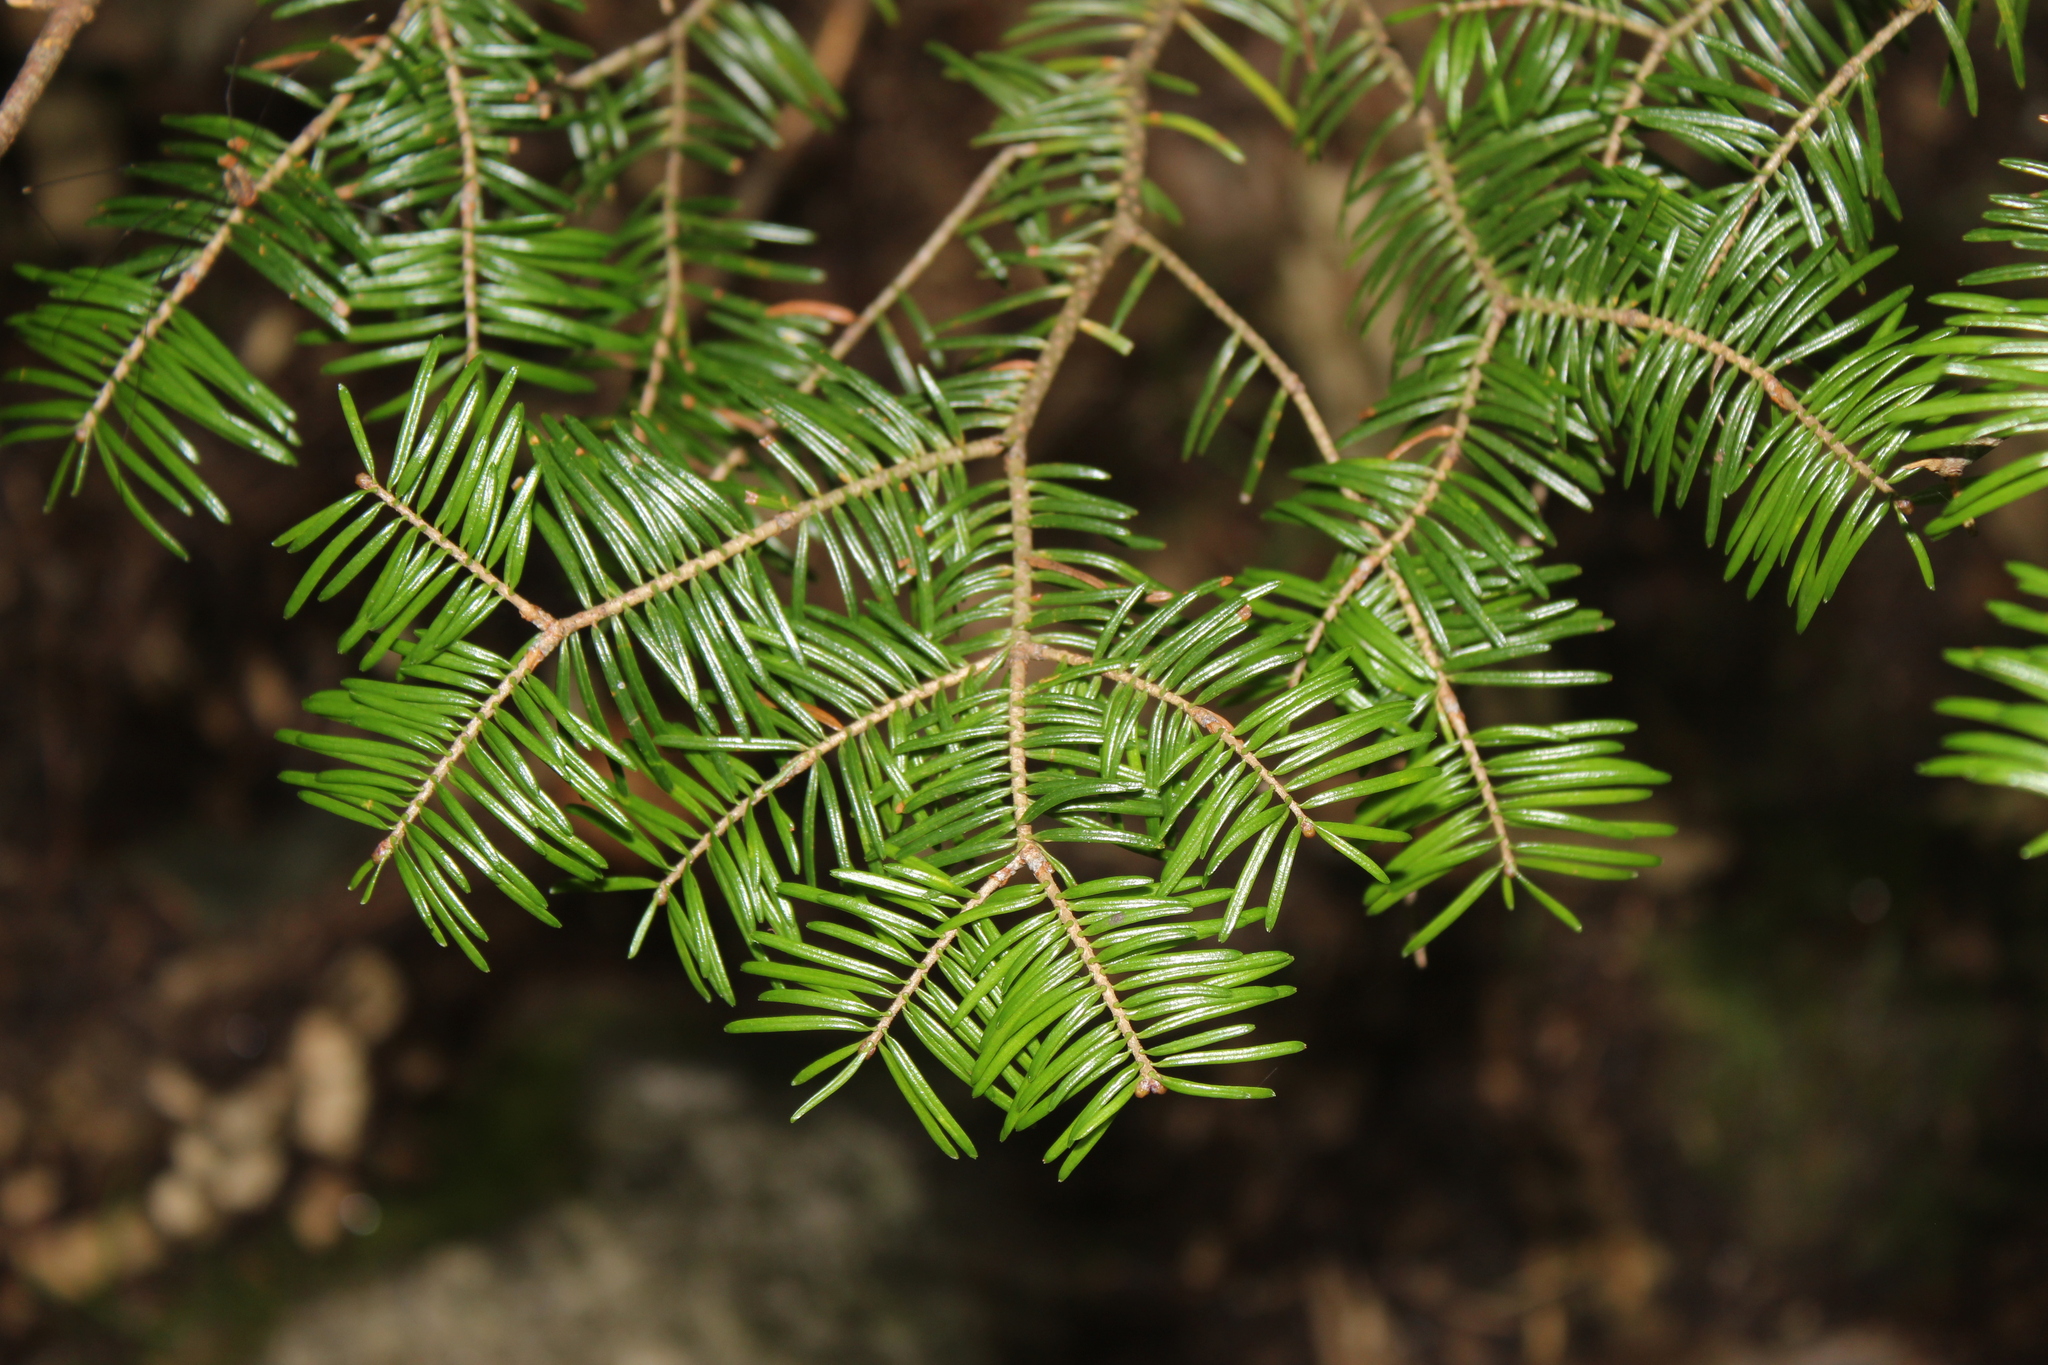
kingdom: Plantae
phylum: Tracheophyta
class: Pinopsida
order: Pinales
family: Pinaceae
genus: Abies
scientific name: Abies balsamea
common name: Balsam fir
